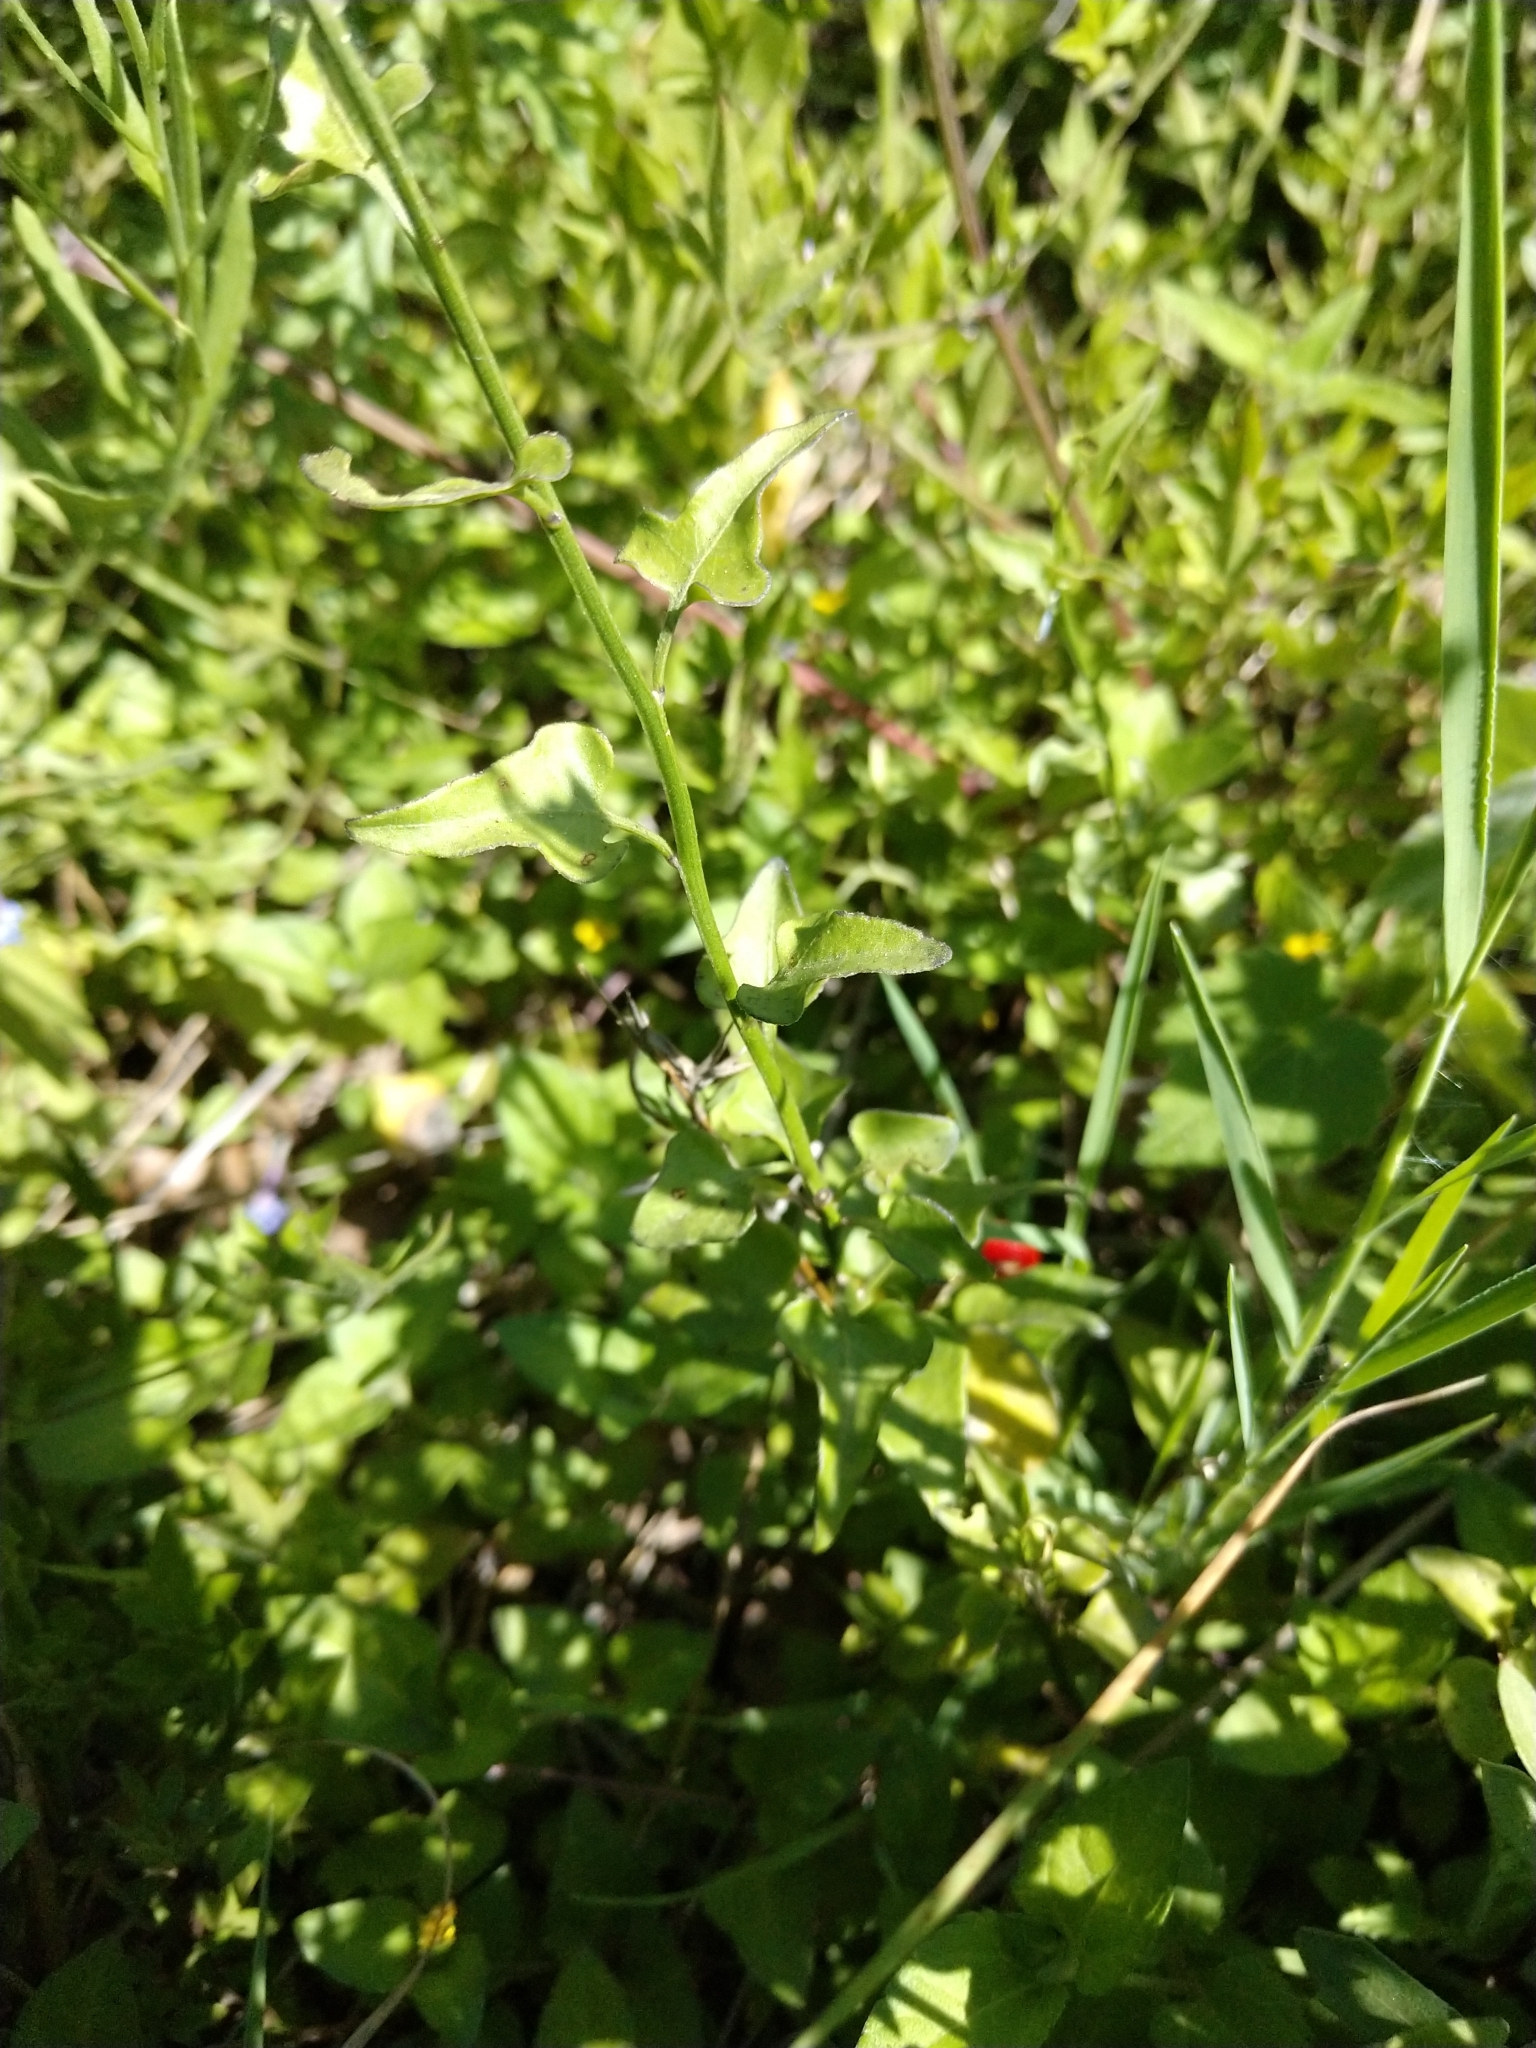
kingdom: Plantae
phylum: Tracheophyta
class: Magnoliopsida
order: Solanales
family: Solanaceae
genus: Solanum
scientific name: Solanum triquetrum
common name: Texas nightshade
